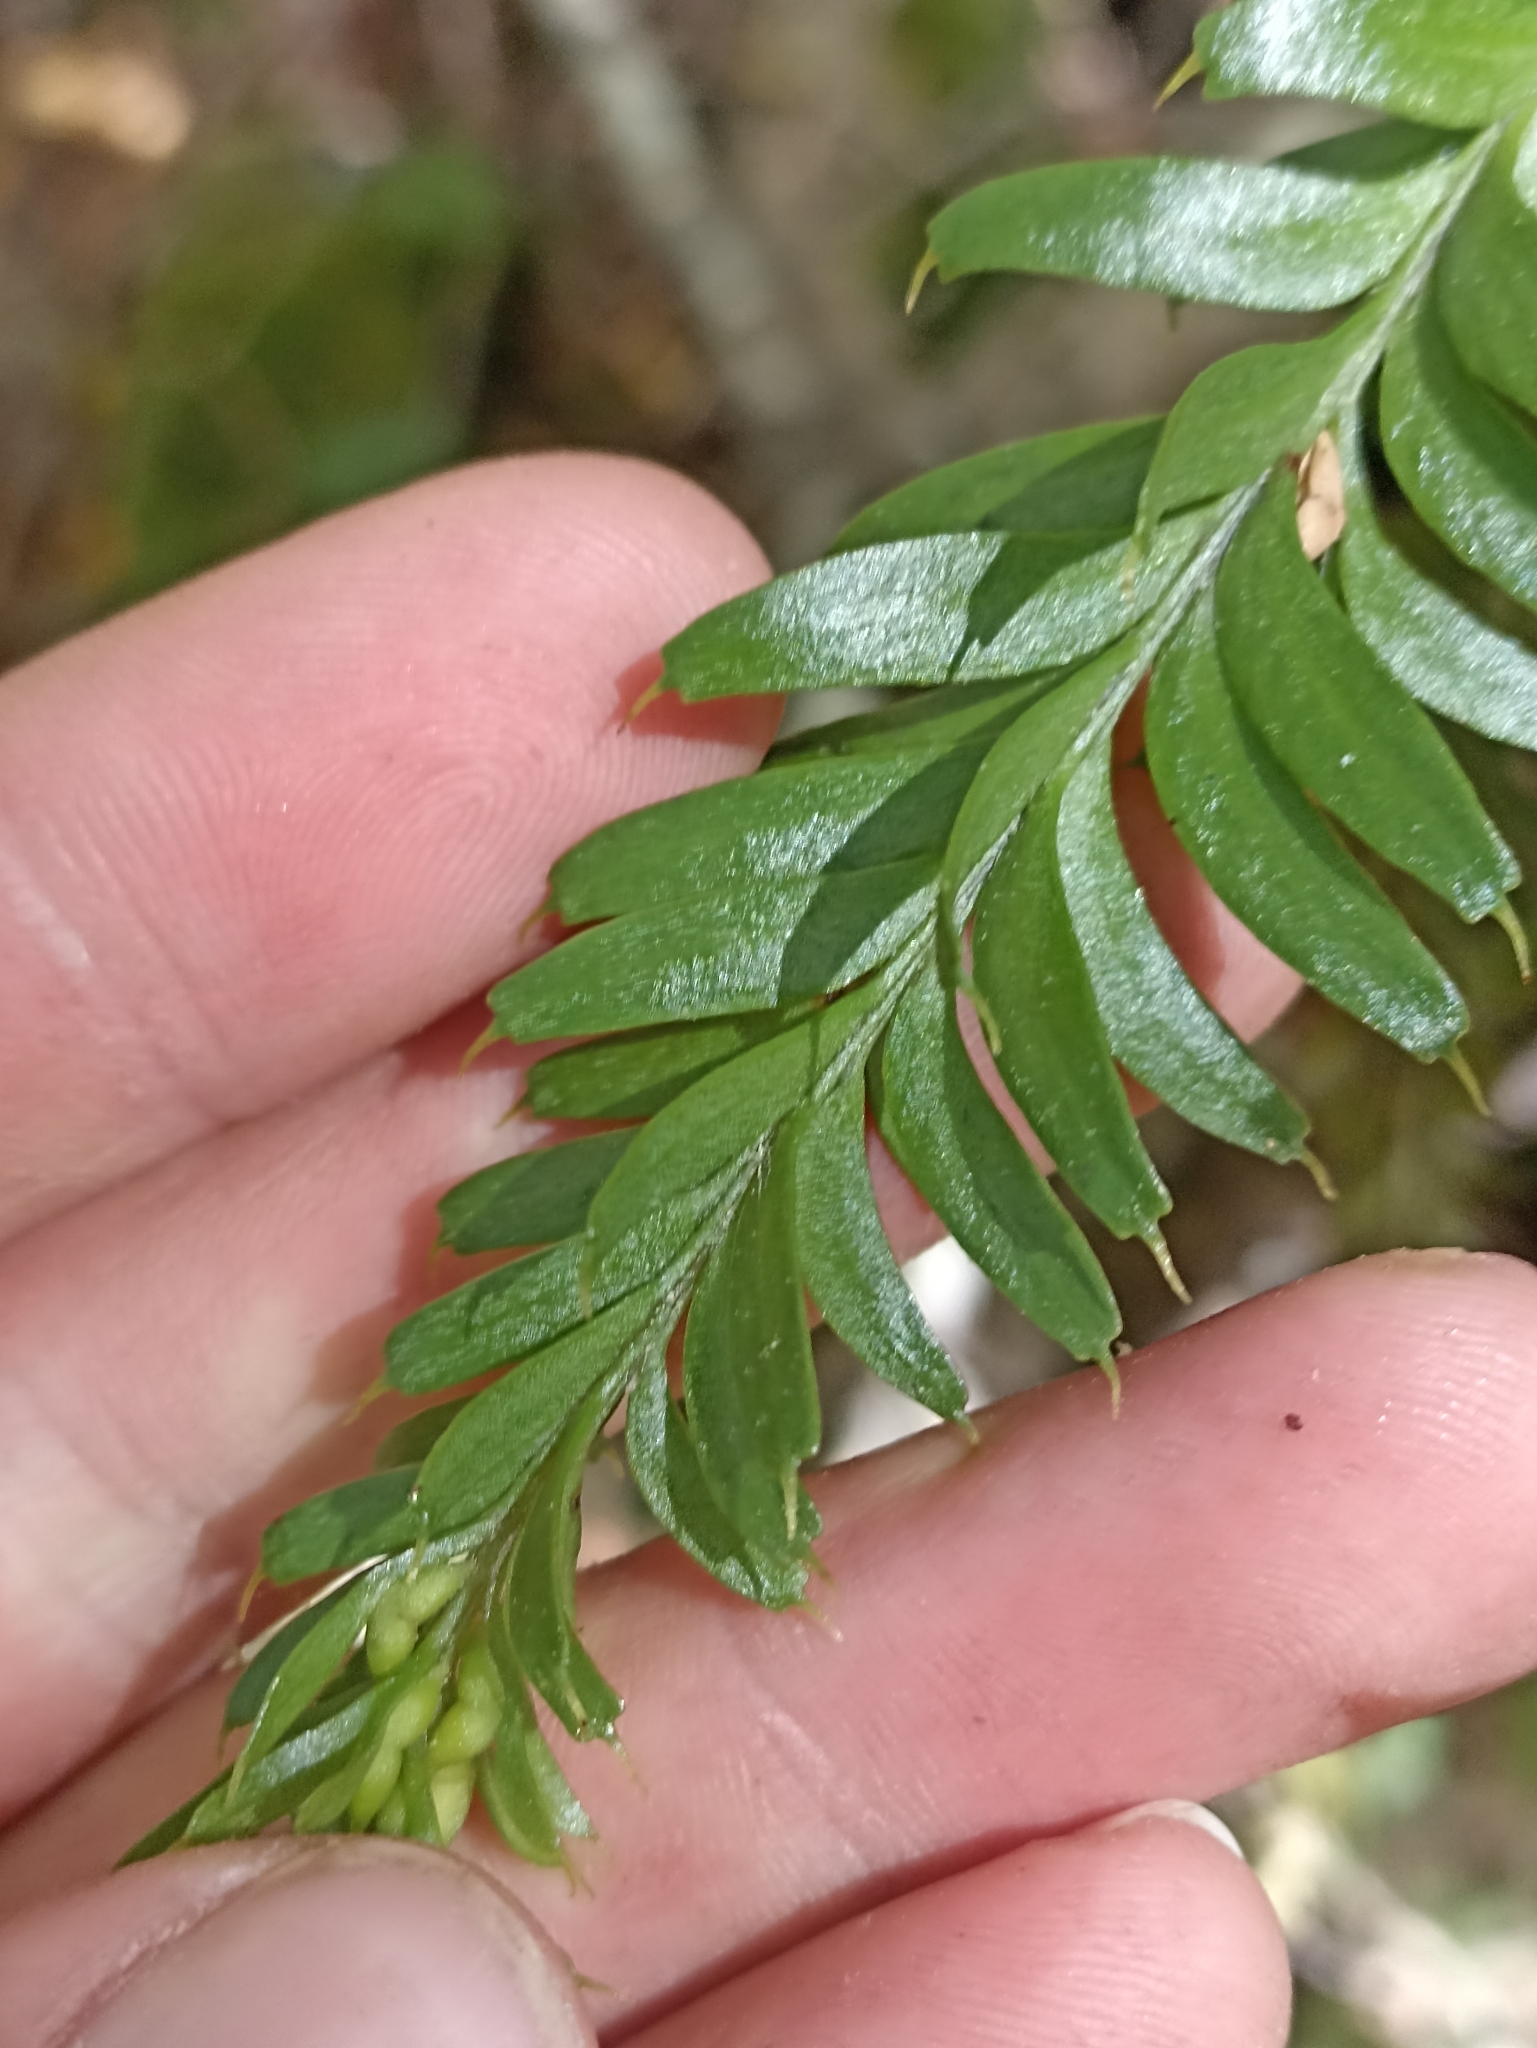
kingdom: Plantae
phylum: Tracheophyta
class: Polypodiopsida
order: Psilotales
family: Psilotaceae
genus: Tmesipteris
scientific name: Tmesipteris tannensis
